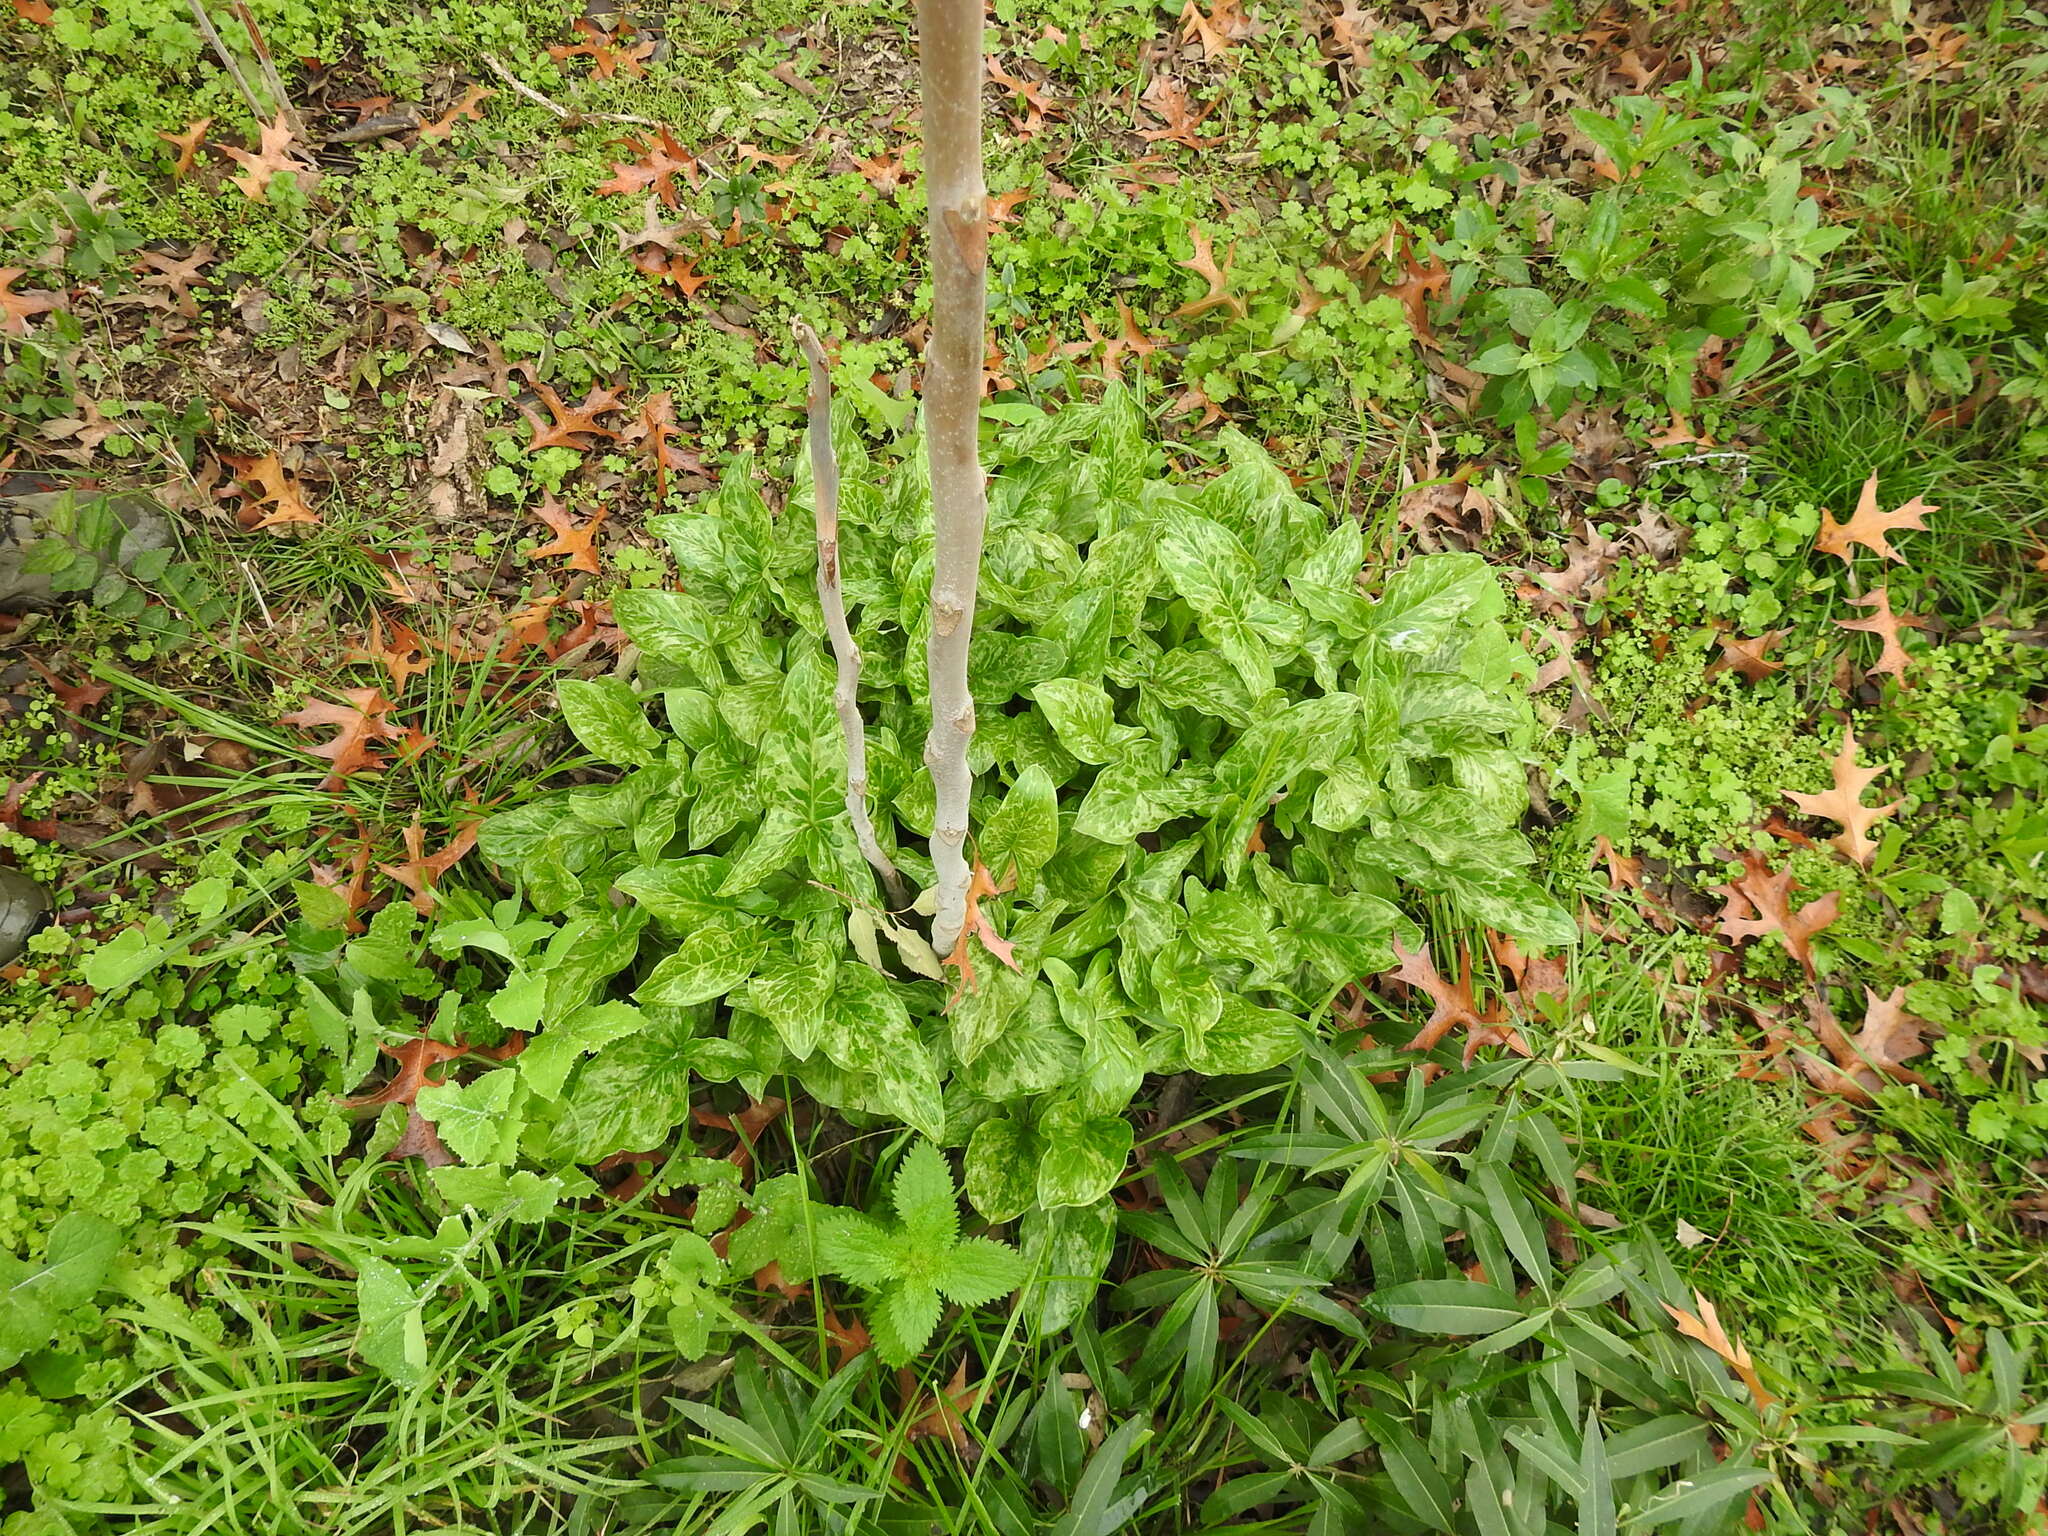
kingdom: Plantae
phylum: Tracheophyta
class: Liliopsida
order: Alismatales
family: Araceae
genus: Arum
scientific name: Arum italicum
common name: Italian lords-and-ladies
